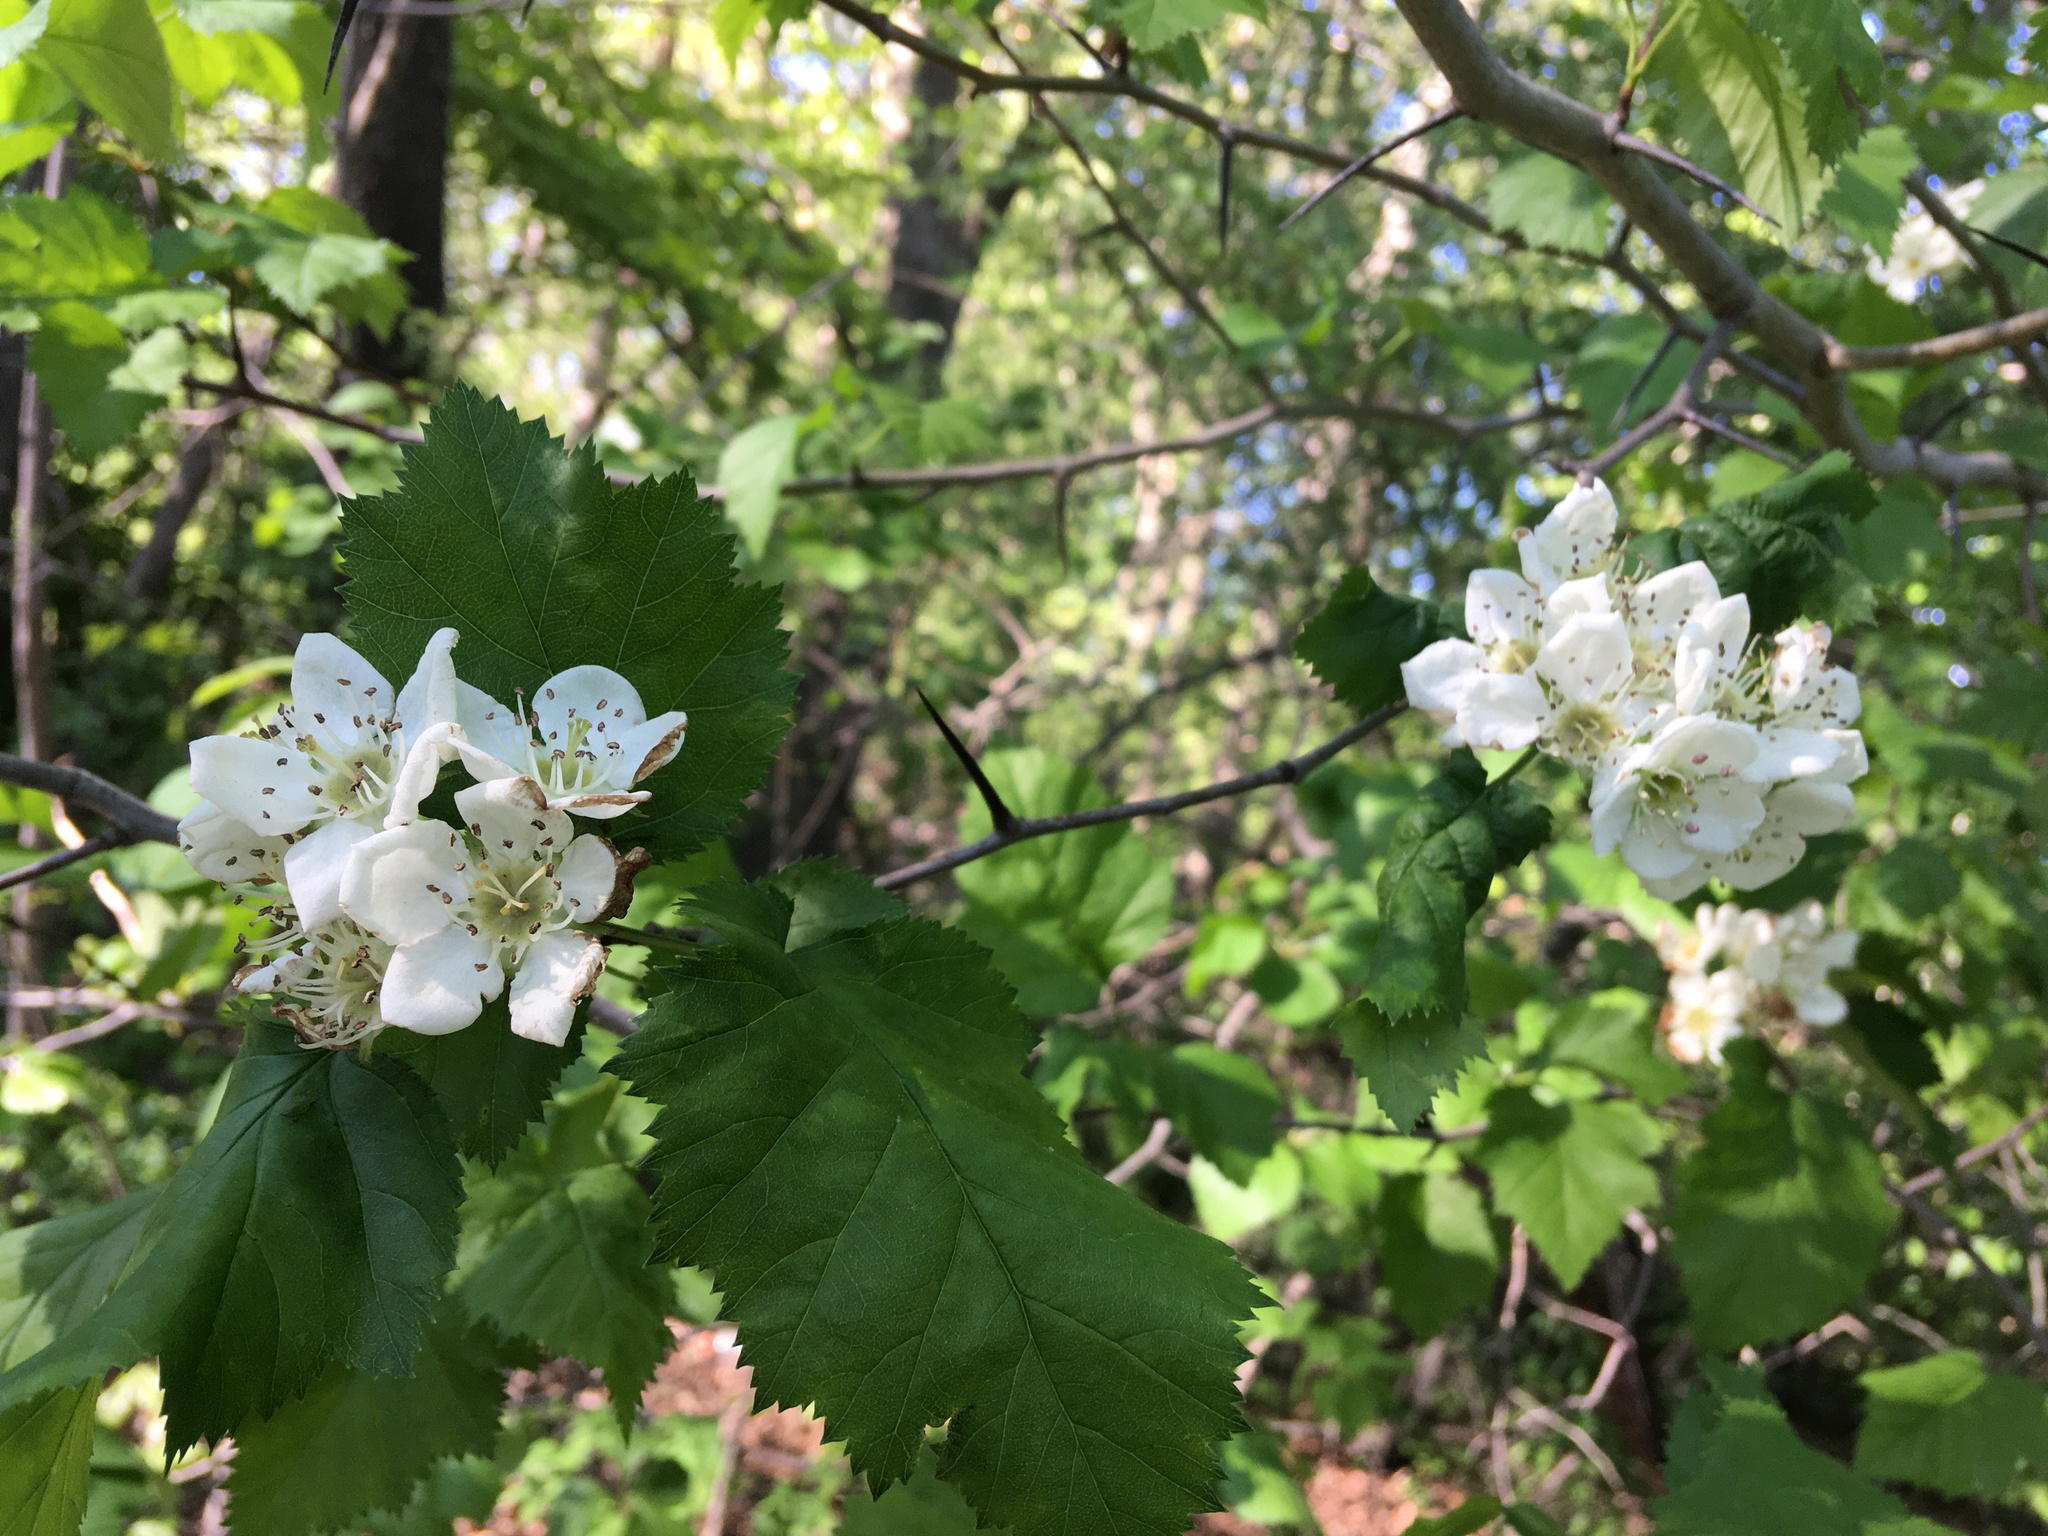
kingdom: Plantae
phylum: Tracheophyta
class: Magnoliopsida
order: Rosales
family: Rosaceae
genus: Crataegus
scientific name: Crataegus mollis
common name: Downy hawthorn
